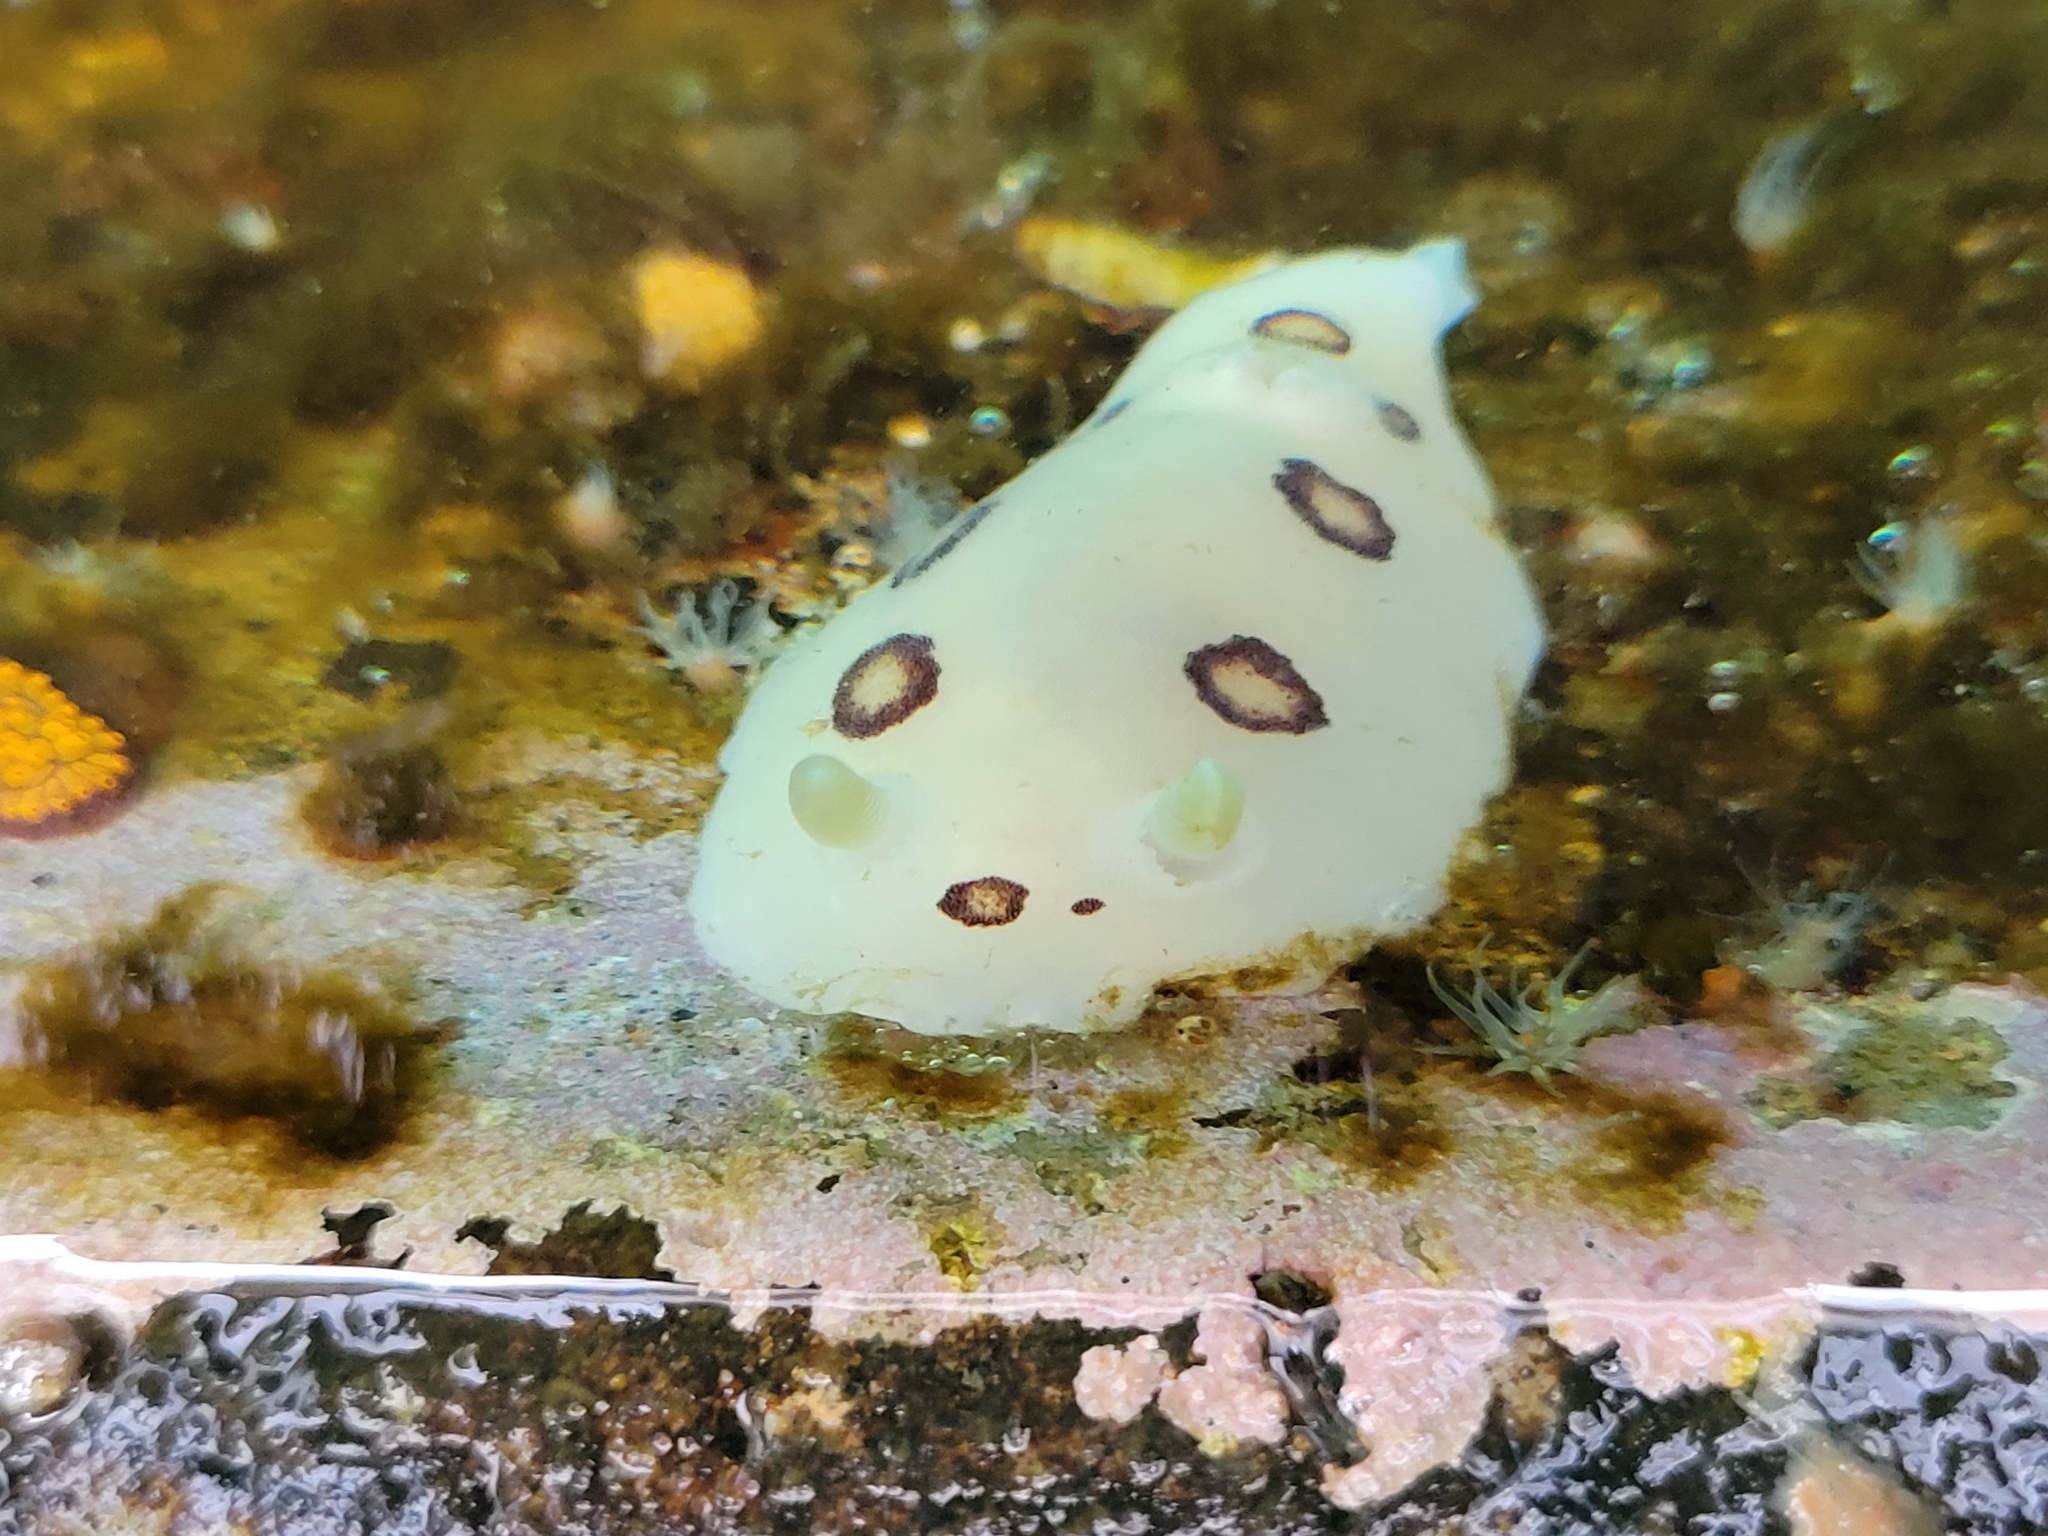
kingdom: Animalia
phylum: Mollusca
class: Gastropoda
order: Nudibranchia
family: Discodorididae
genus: Diaulula
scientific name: Diaulula sandiegensis
